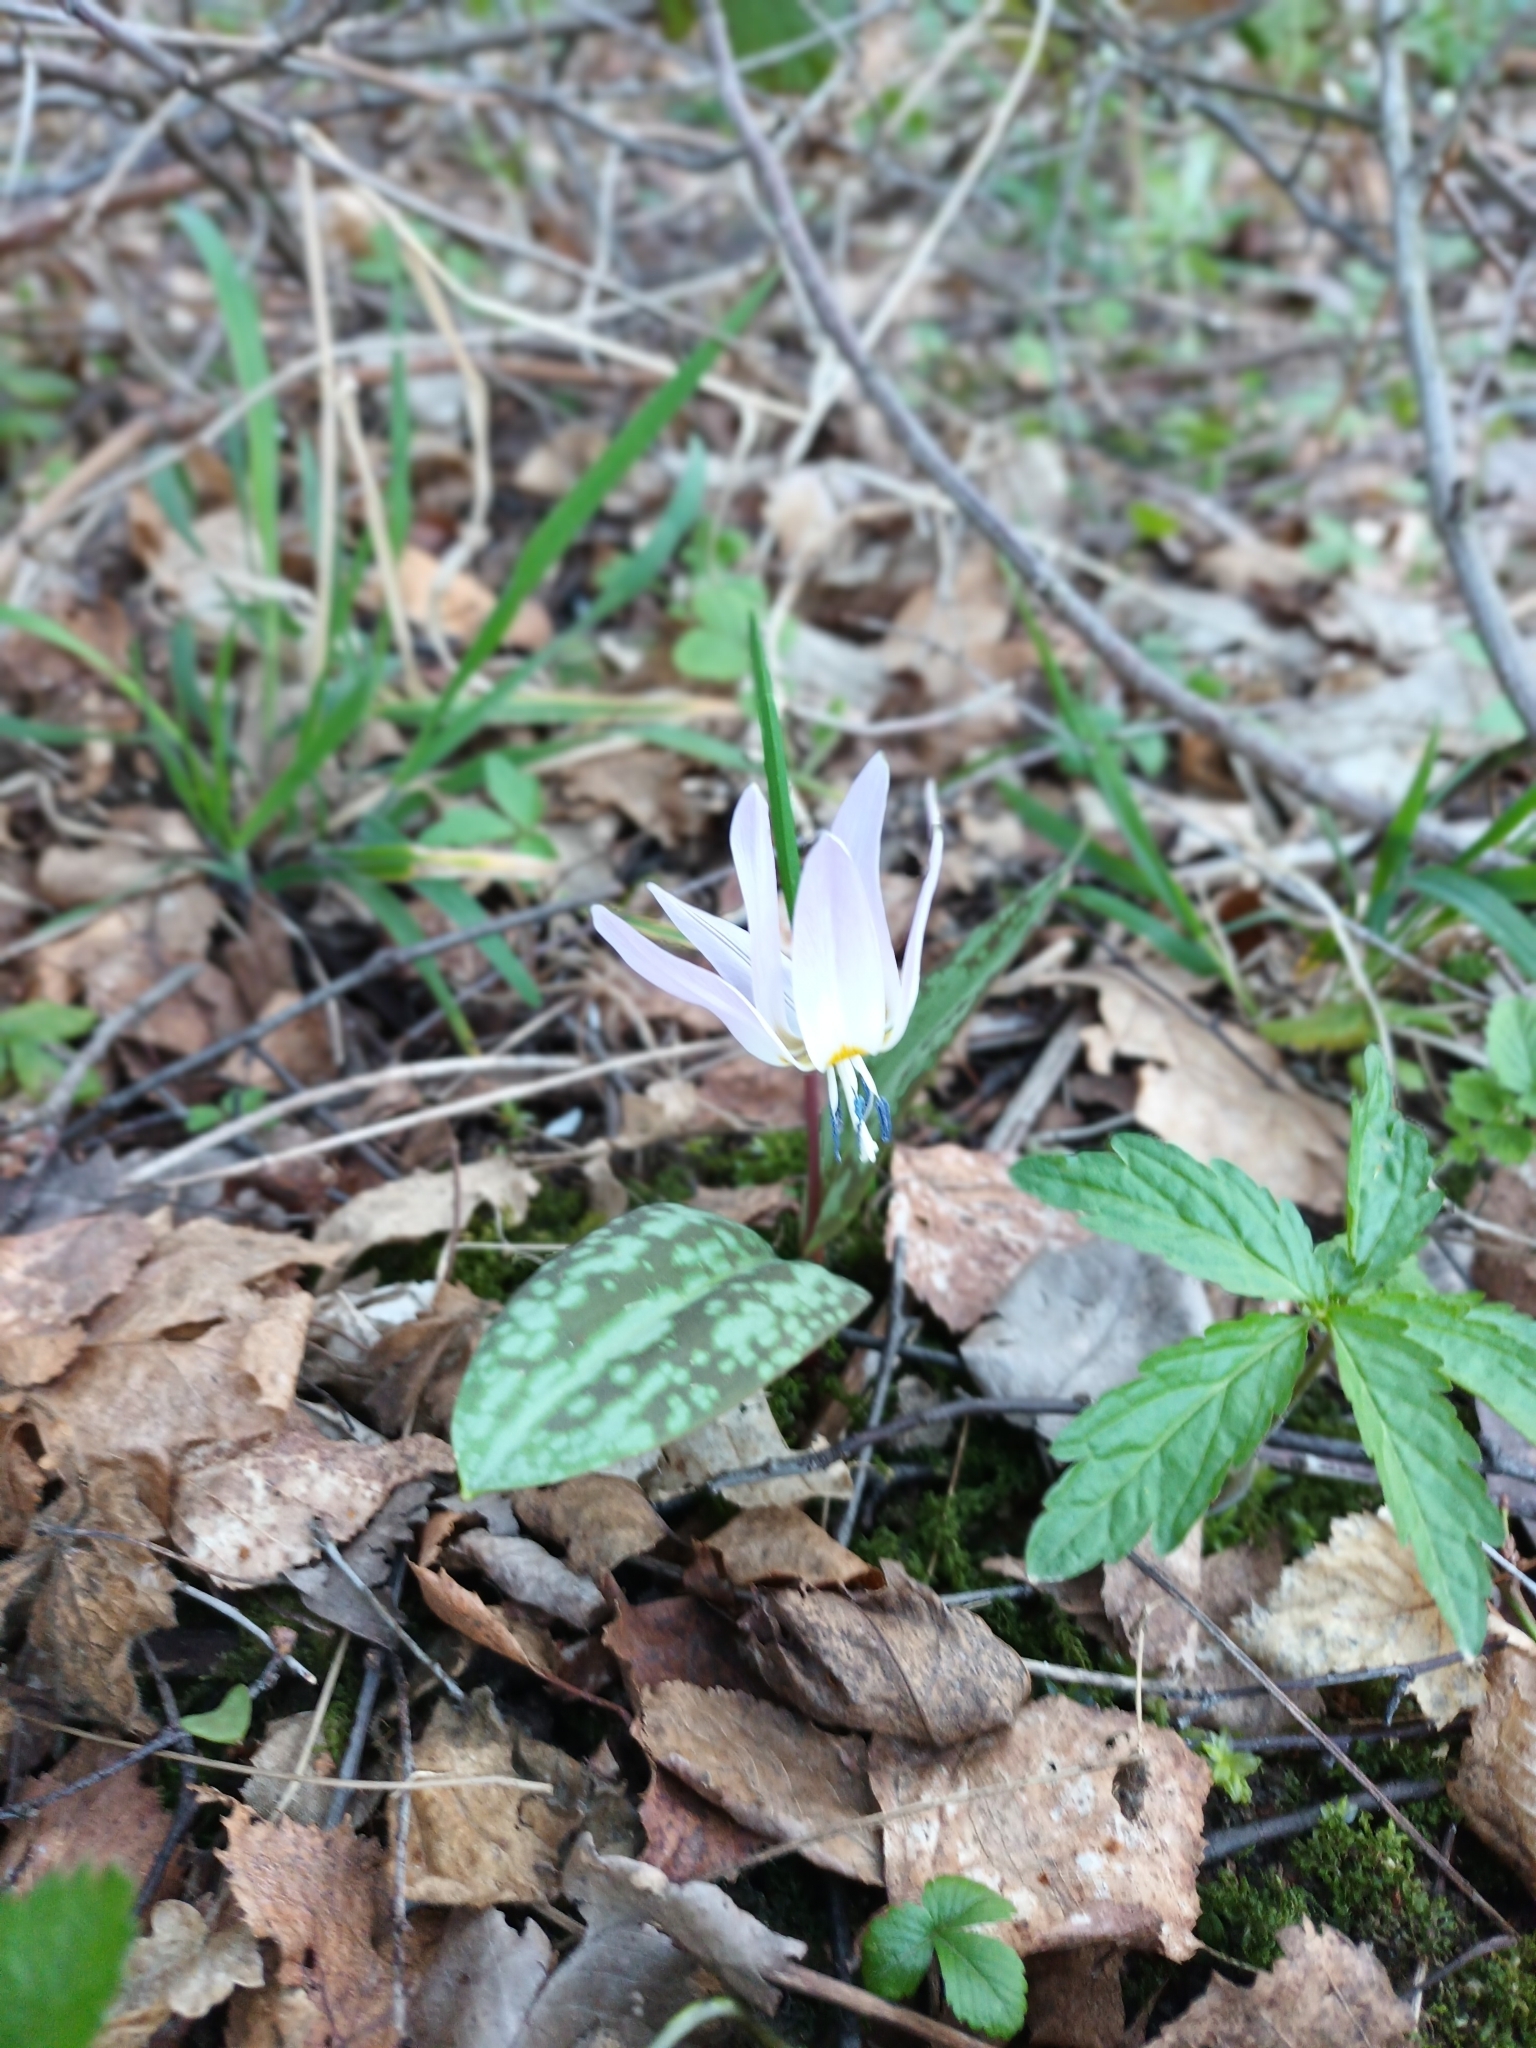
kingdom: Plantae
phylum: Tracheophyta
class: Liliopsida
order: Liliales
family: Liliaceae
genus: Erythronium
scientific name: Erythronium dens-canis
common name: Dog's-tooth-violet
